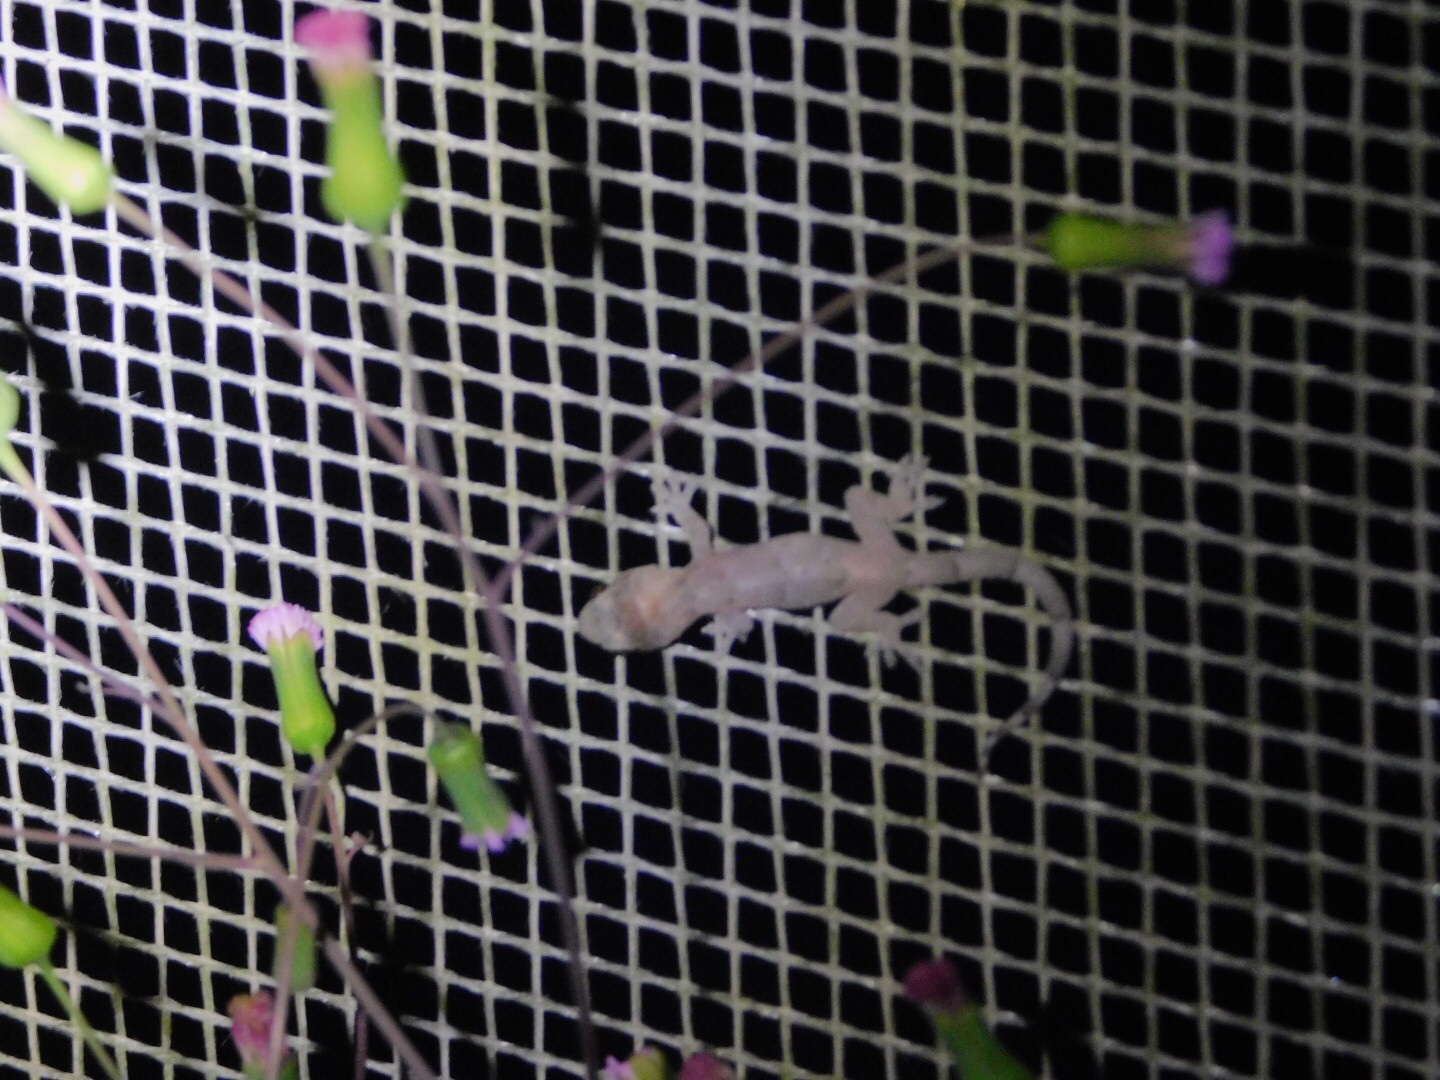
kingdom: Animalia
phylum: Chordata
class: Squamata
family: Gekkonidae
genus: Hemidactylus
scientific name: Hemidactylus mabouia
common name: House gecko
